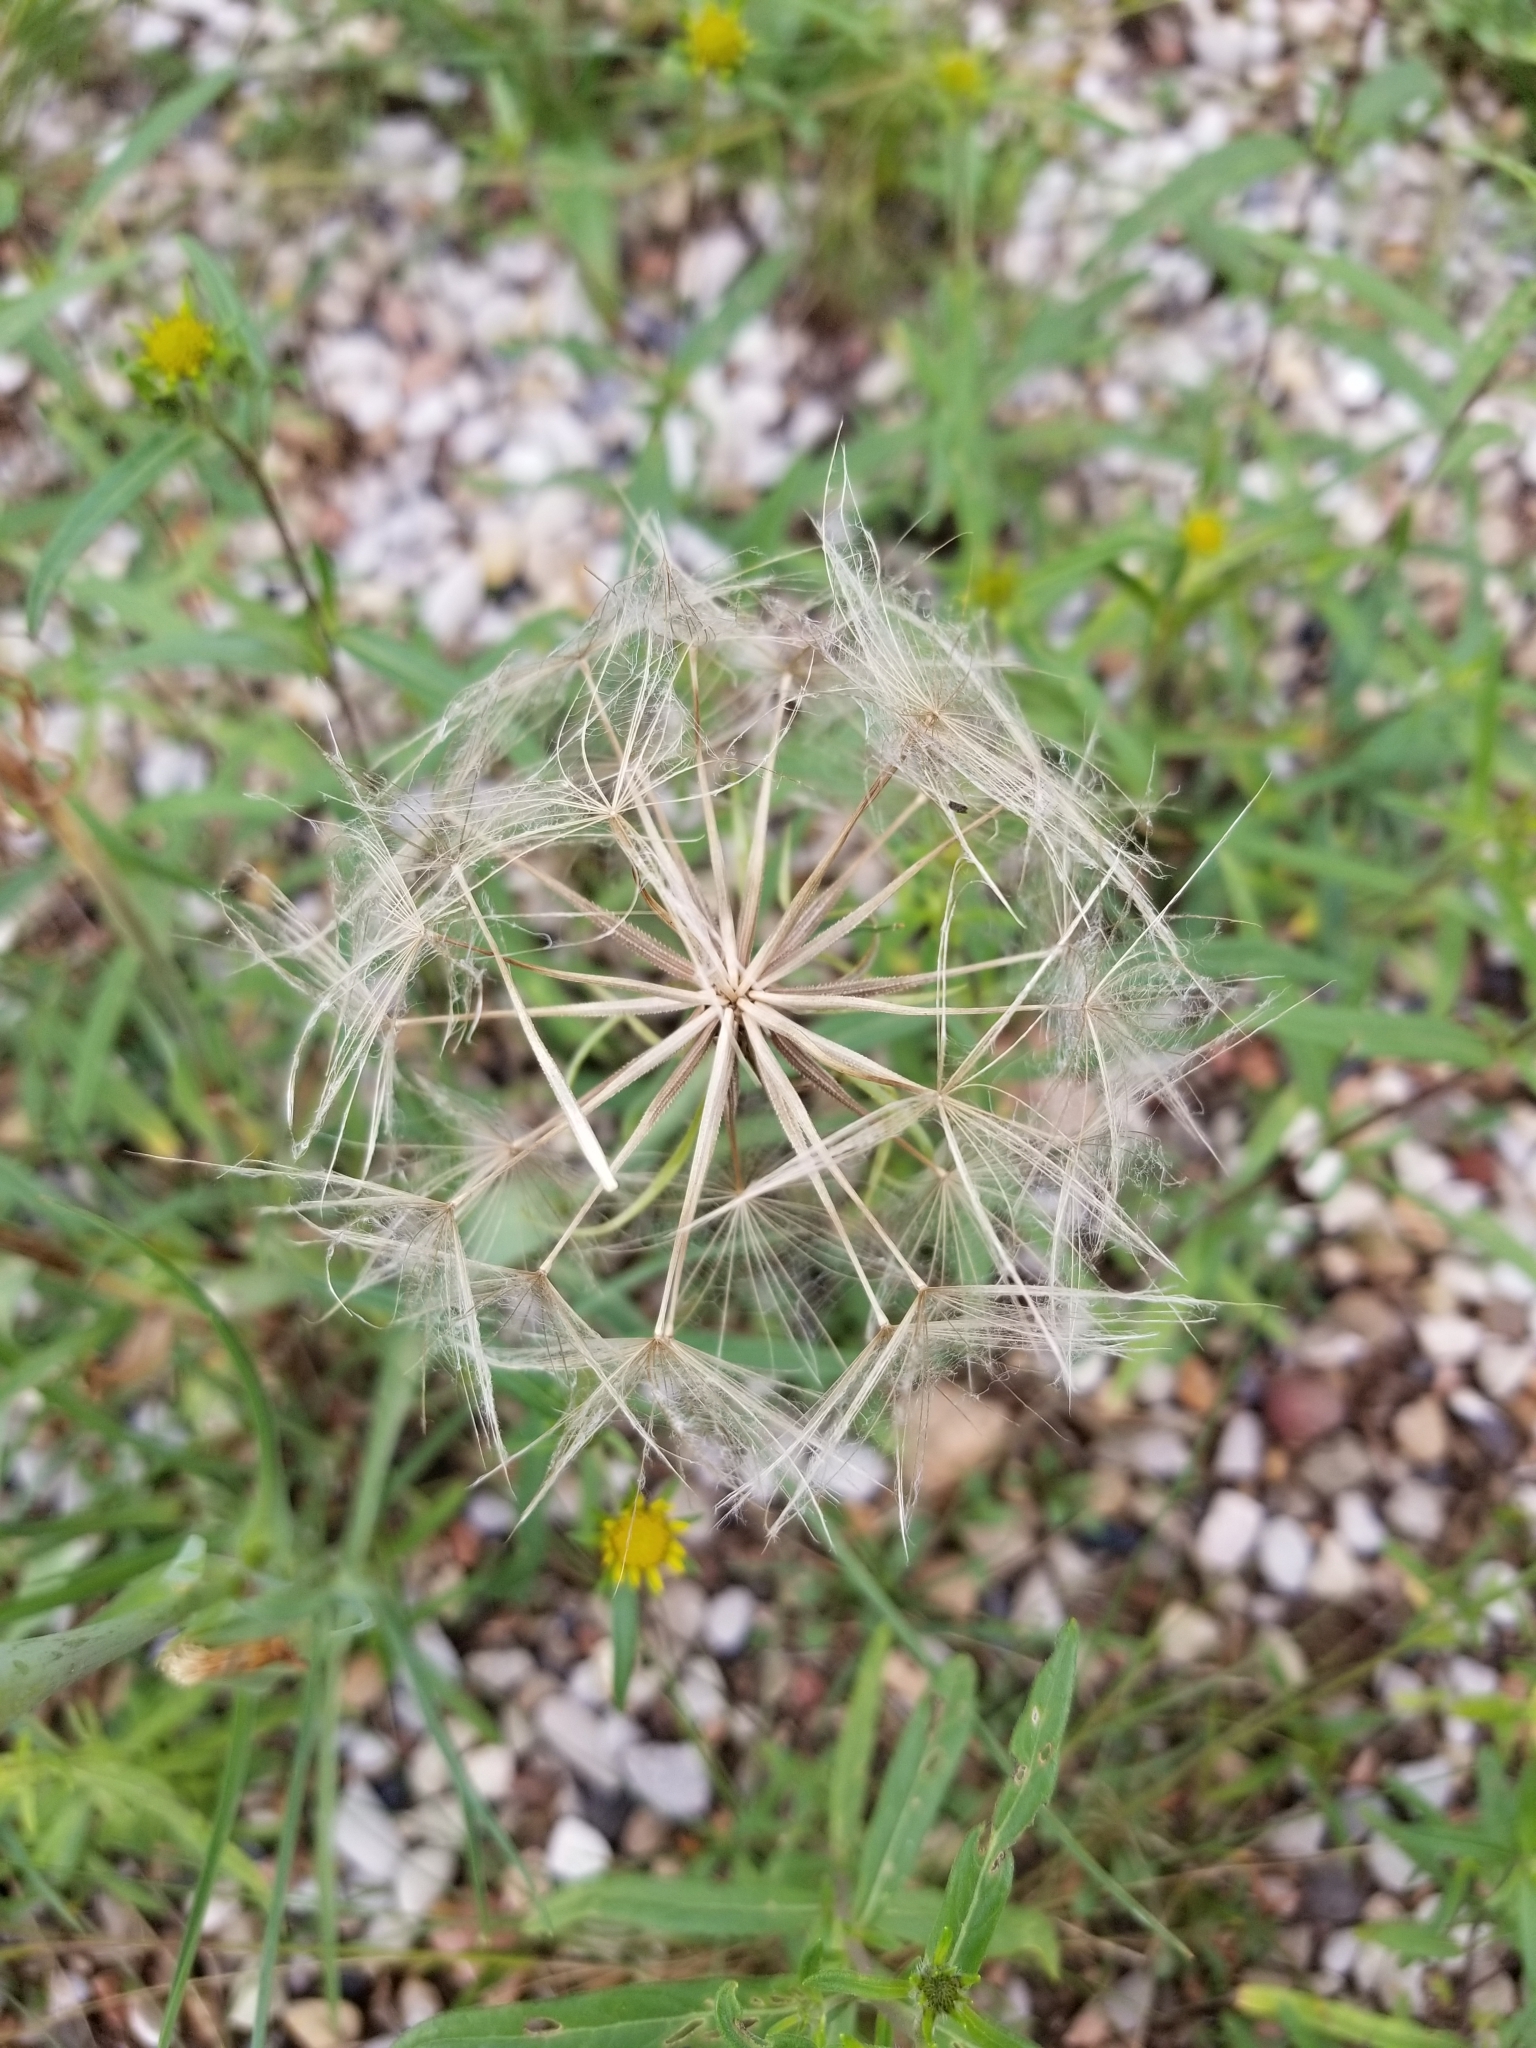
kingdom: Plantae
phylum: Tracheophyta
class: Magnoliopsida
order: Asterales
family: Asteraceae
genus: Tragopogon
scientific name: Tragopogon dubius
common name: Yellow salsify
